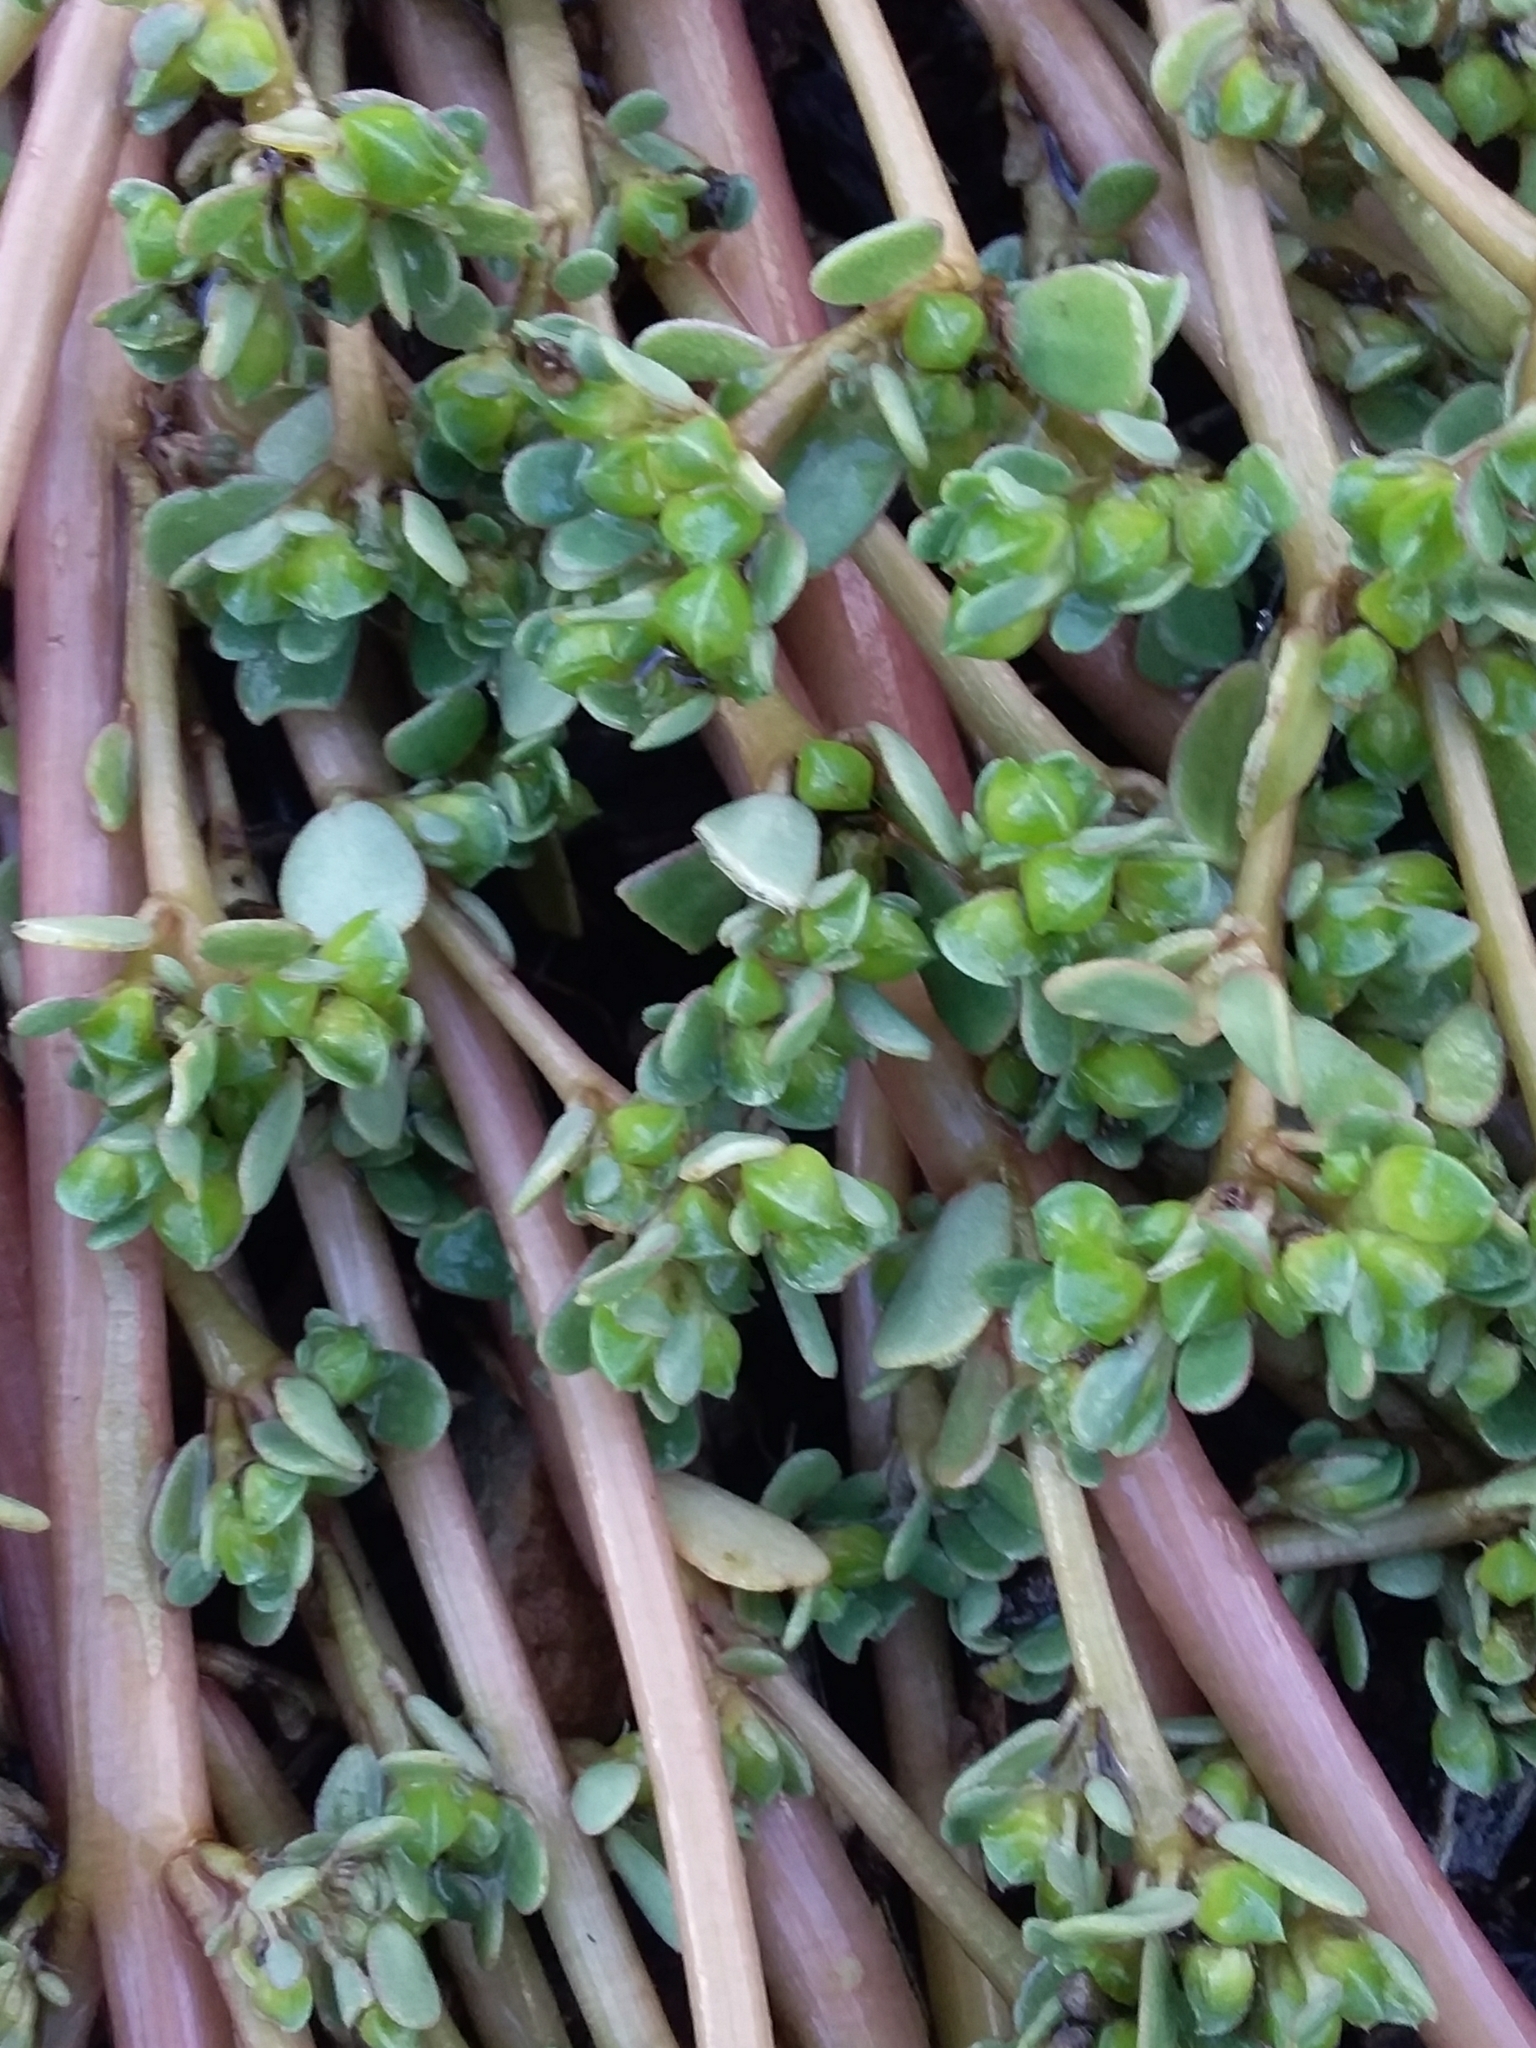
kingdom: Plantae
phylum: Tracheophyta
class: Magnoliopsida
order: Caryophyllales
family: Portulacaceae
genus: Portulaca
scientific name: Portulaca oleracea
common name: Common purslane
